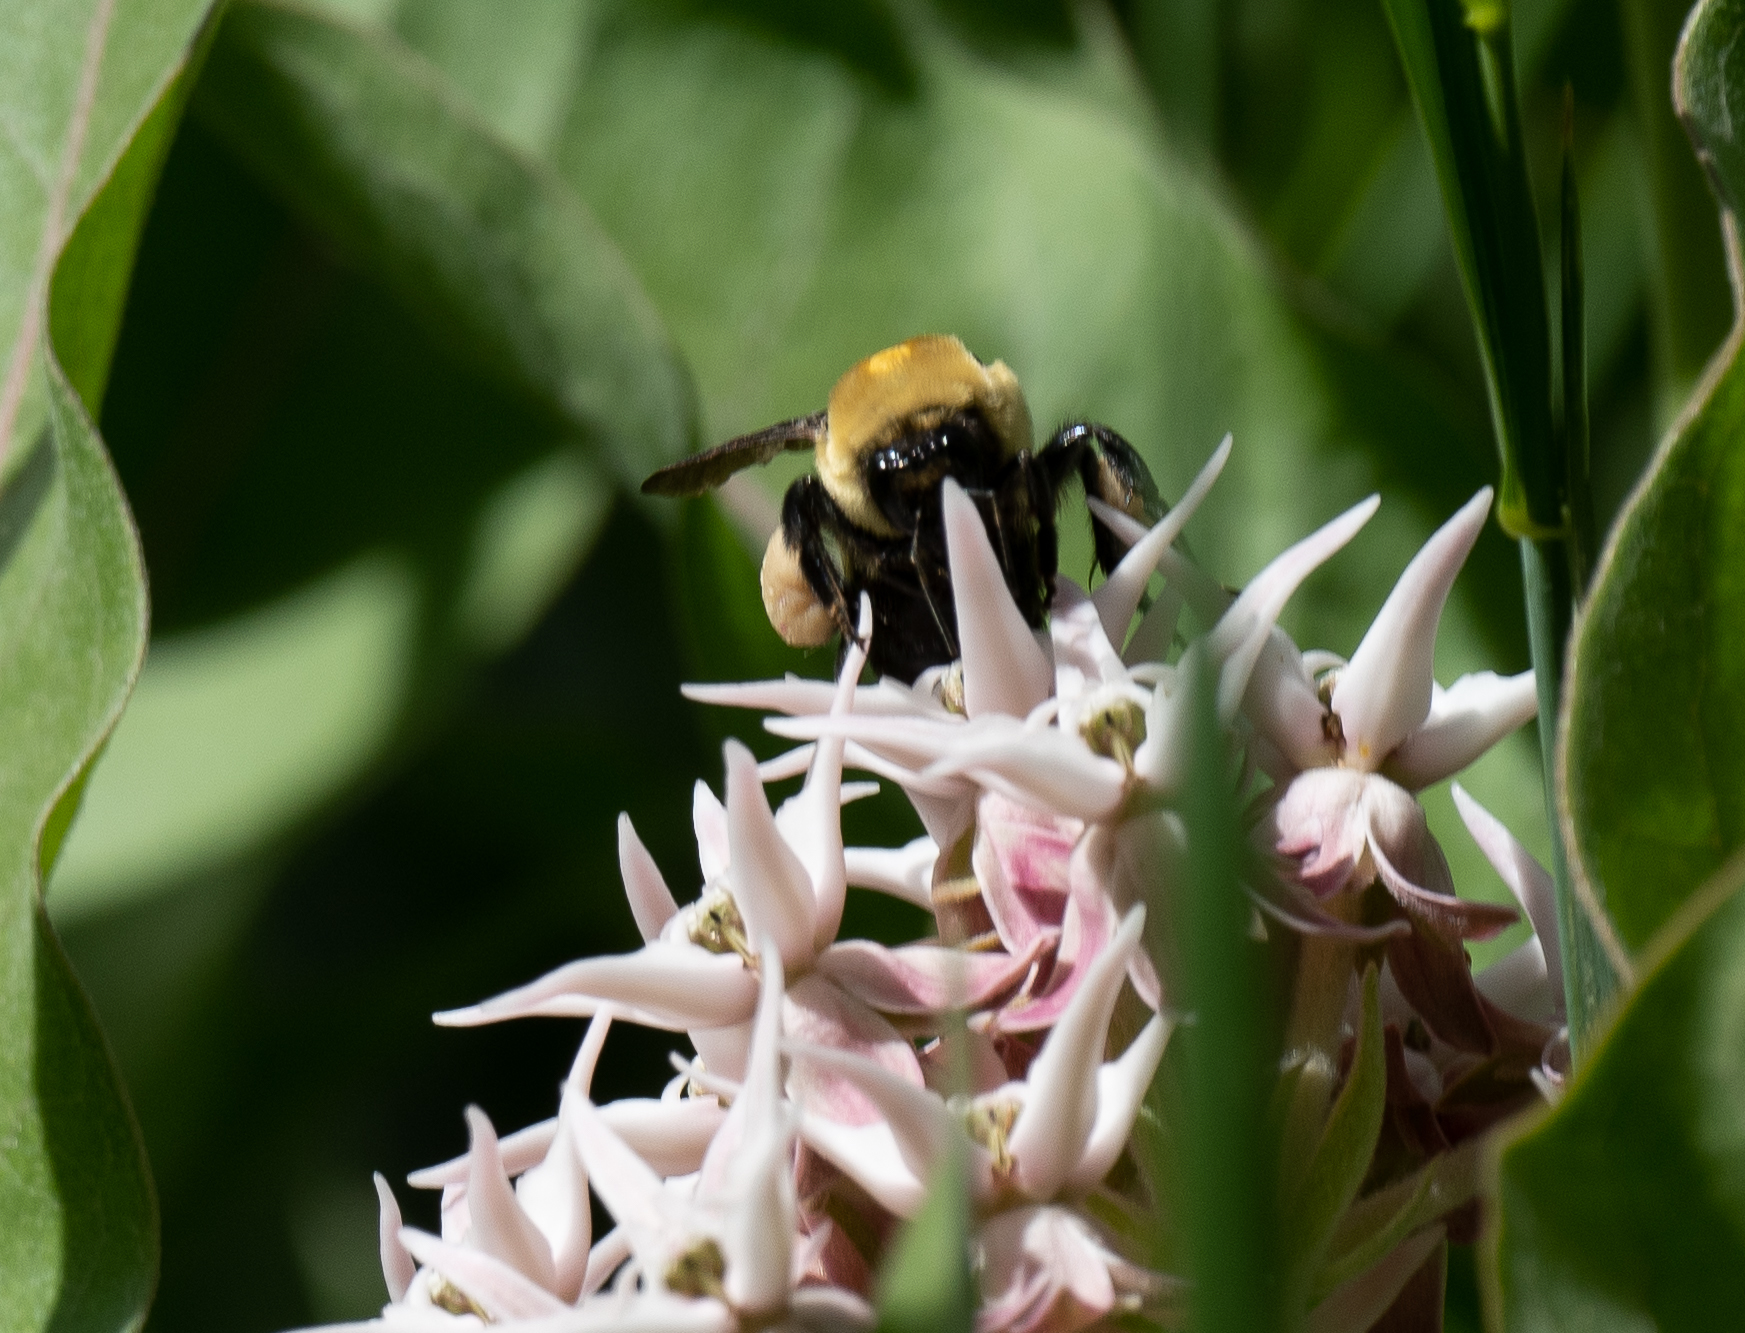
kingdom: Animalia
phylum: Arthropoda
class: Insecta
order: Hymenoptera
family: Apidae
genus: Bombus
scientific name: Bombus griseocollis
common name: Brown-belted bumble bee
